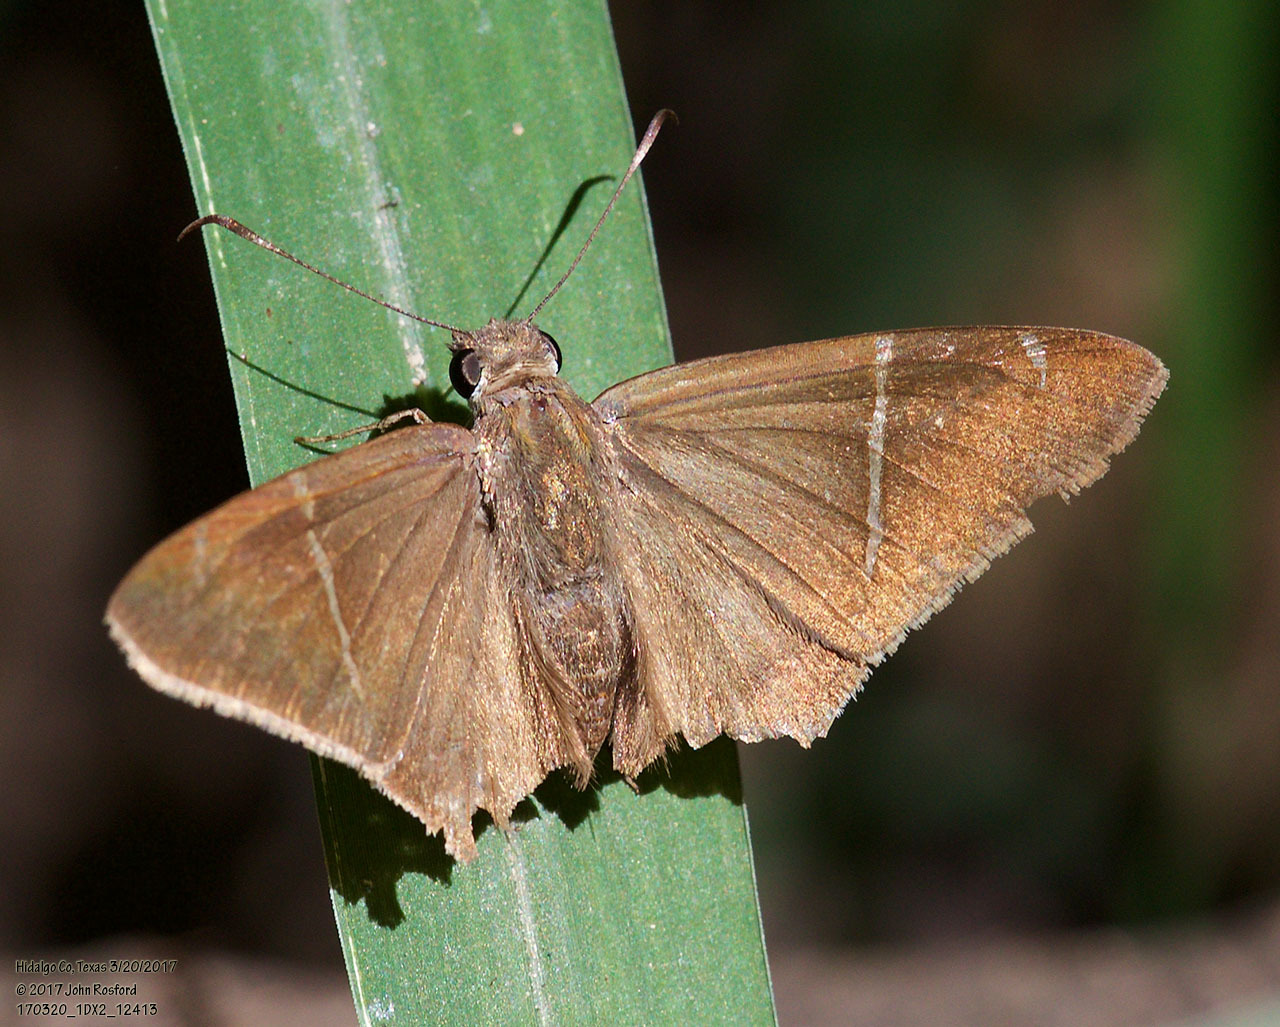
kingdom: Animalia
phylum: Arthropoda
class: Insecta
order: Lepidoptera
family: Hesperiidae
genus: Urbanus
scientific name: Urbanus teleus
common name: Teleus longtail
